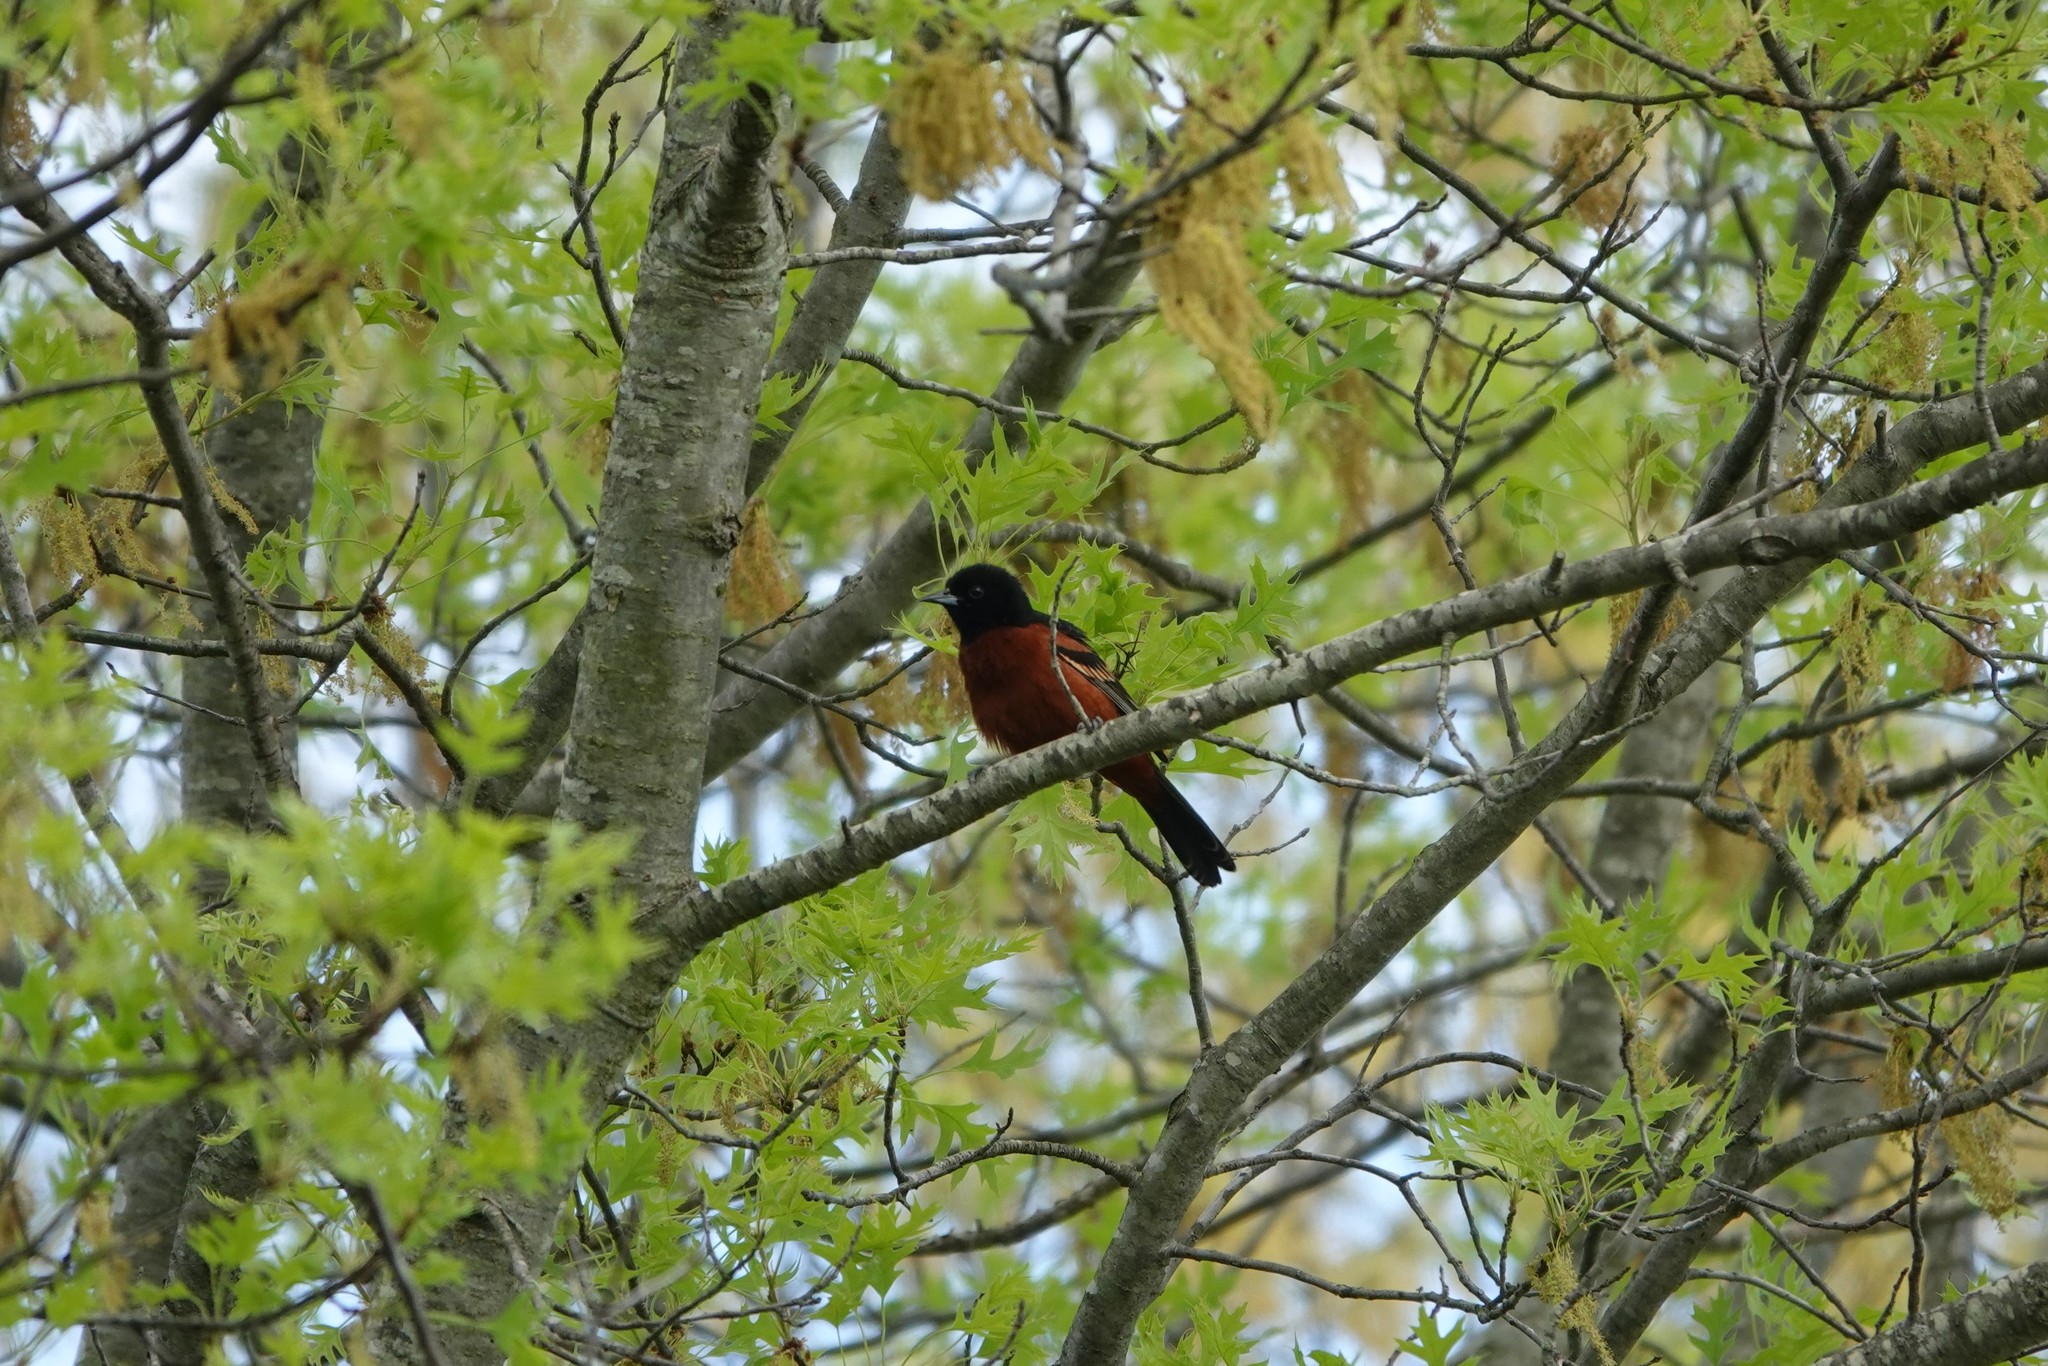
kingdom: Animalia
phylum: Chordata
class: Aves
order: Passeriformes
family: Icteridae
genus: Icterus
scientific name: Icterus spurius
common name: Orchard oriole
